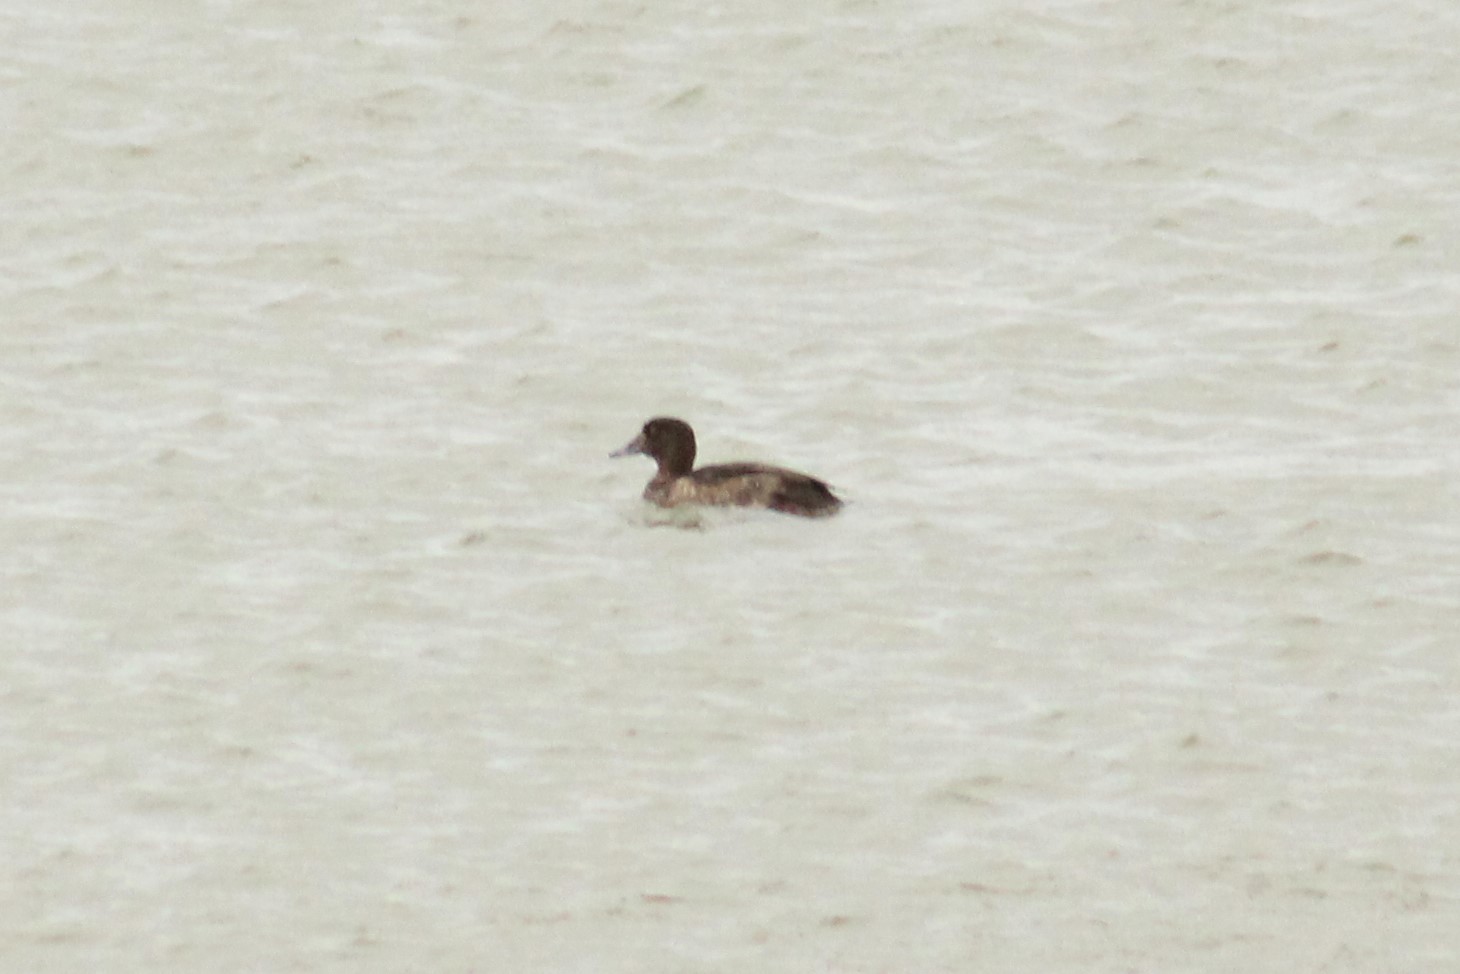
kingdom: Animalia
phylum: Chordata
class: Aves
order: Anseriformes
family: Anatidae
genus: Aythya
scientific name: Aythya fuligula
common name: Tufted duck
